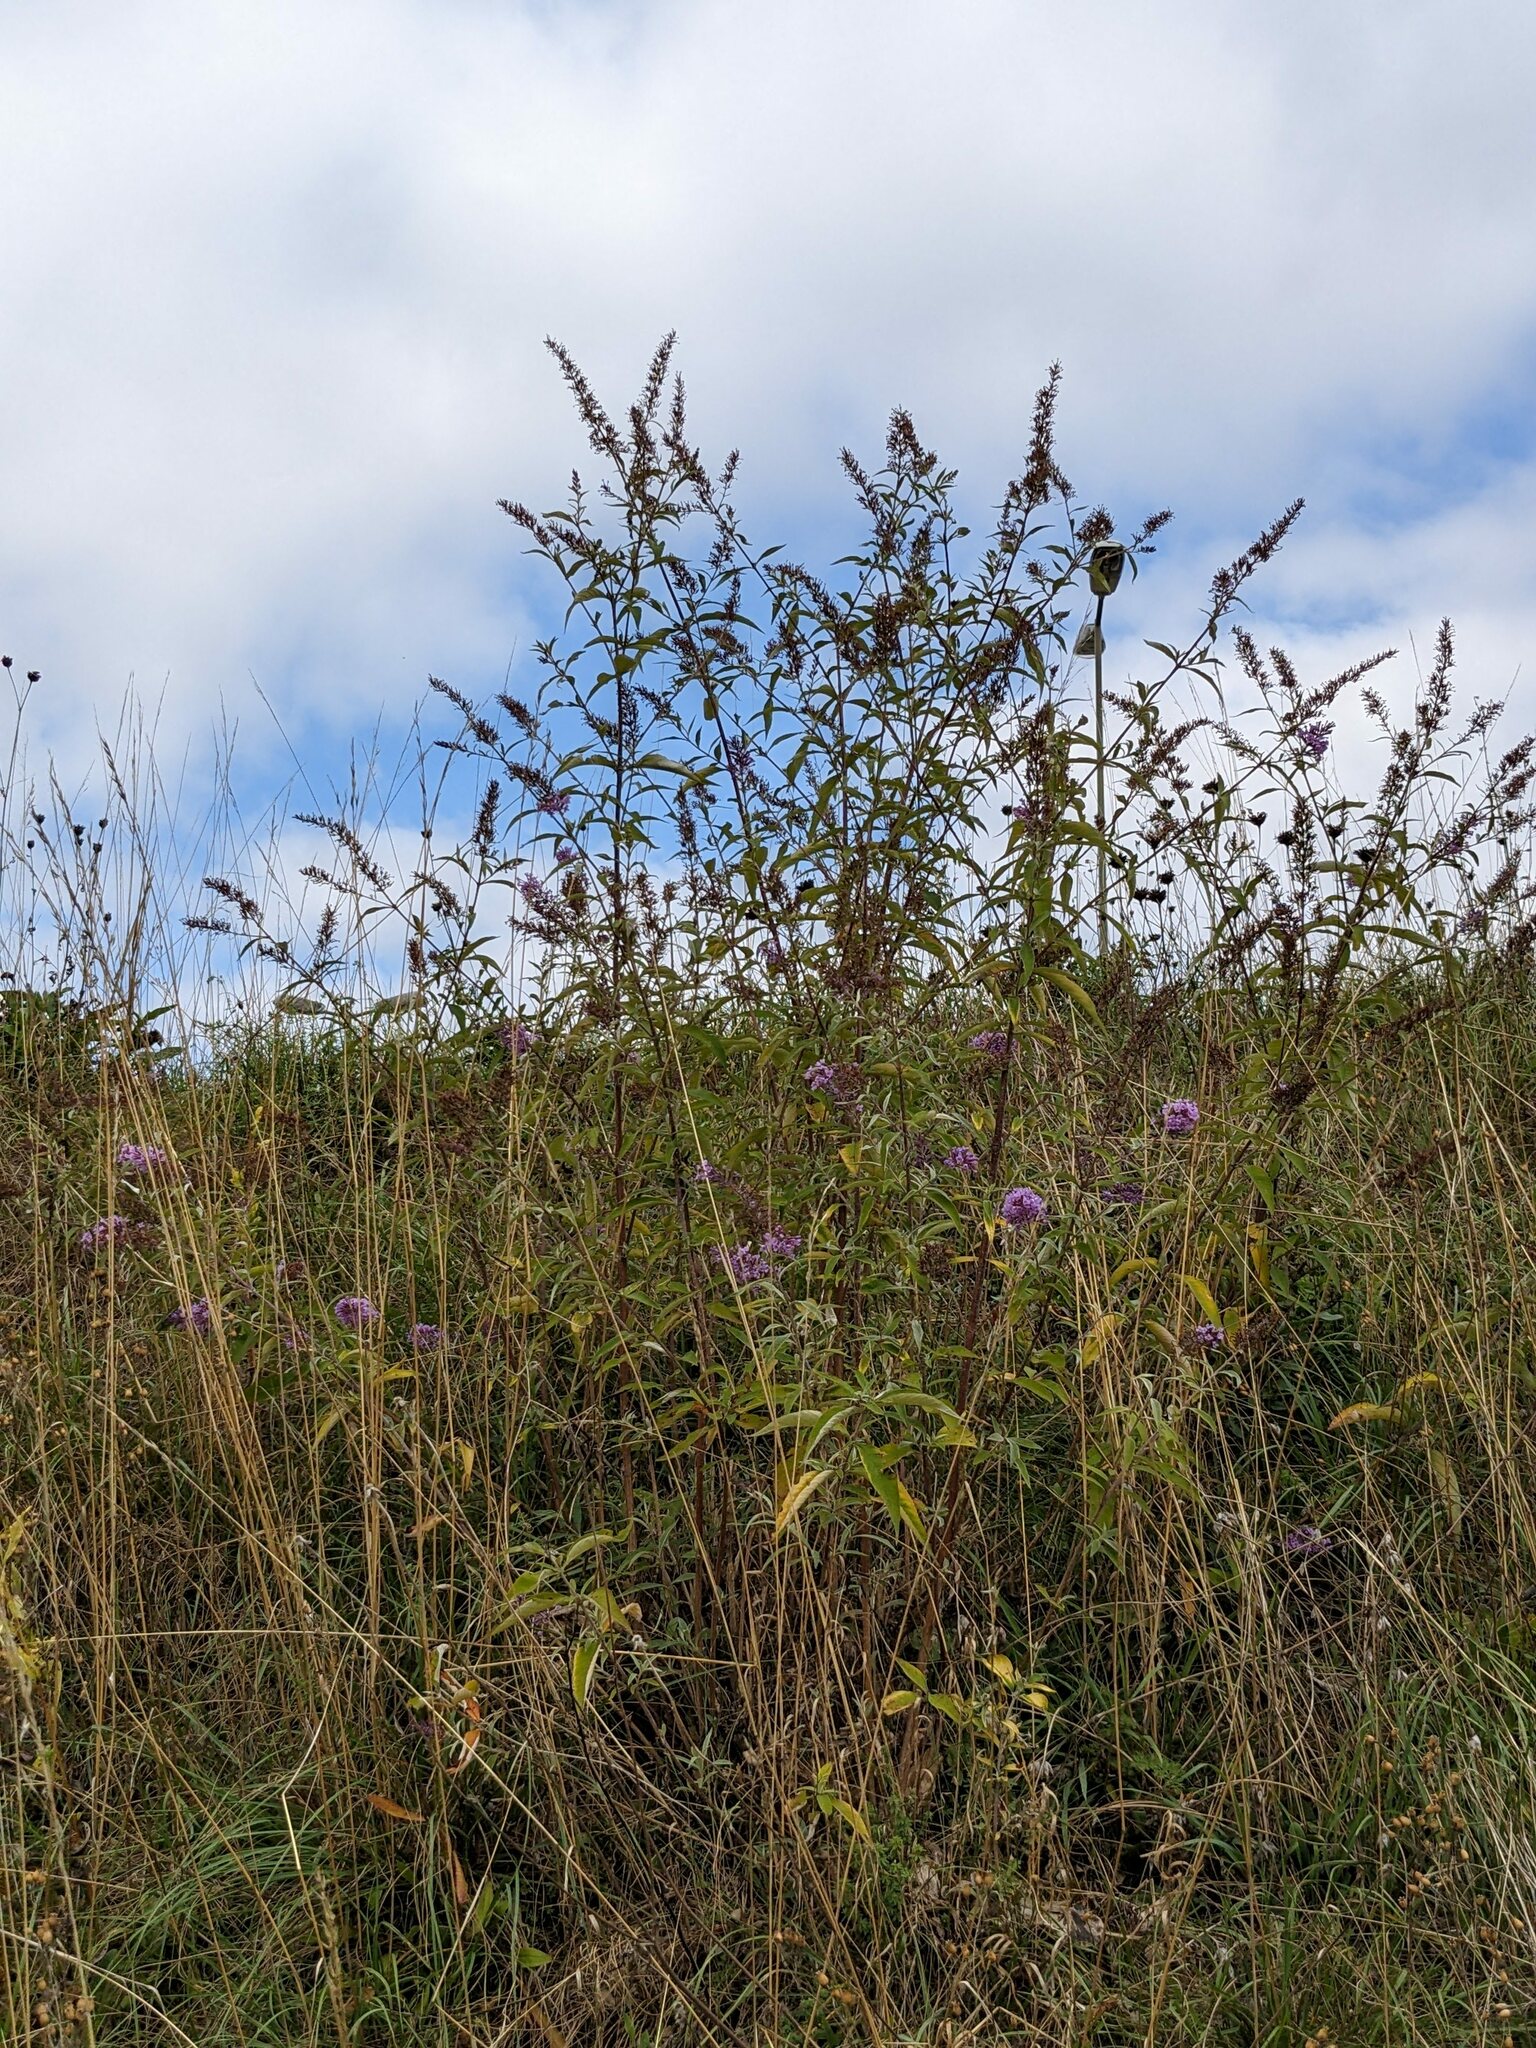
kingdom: Plantae
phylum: Tracheophyta
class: Magnoliopsida
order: Lamiales
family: Scrophulariaceae
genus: Buddleja
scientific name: Buddleja davidii
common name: Butterfly-bush
